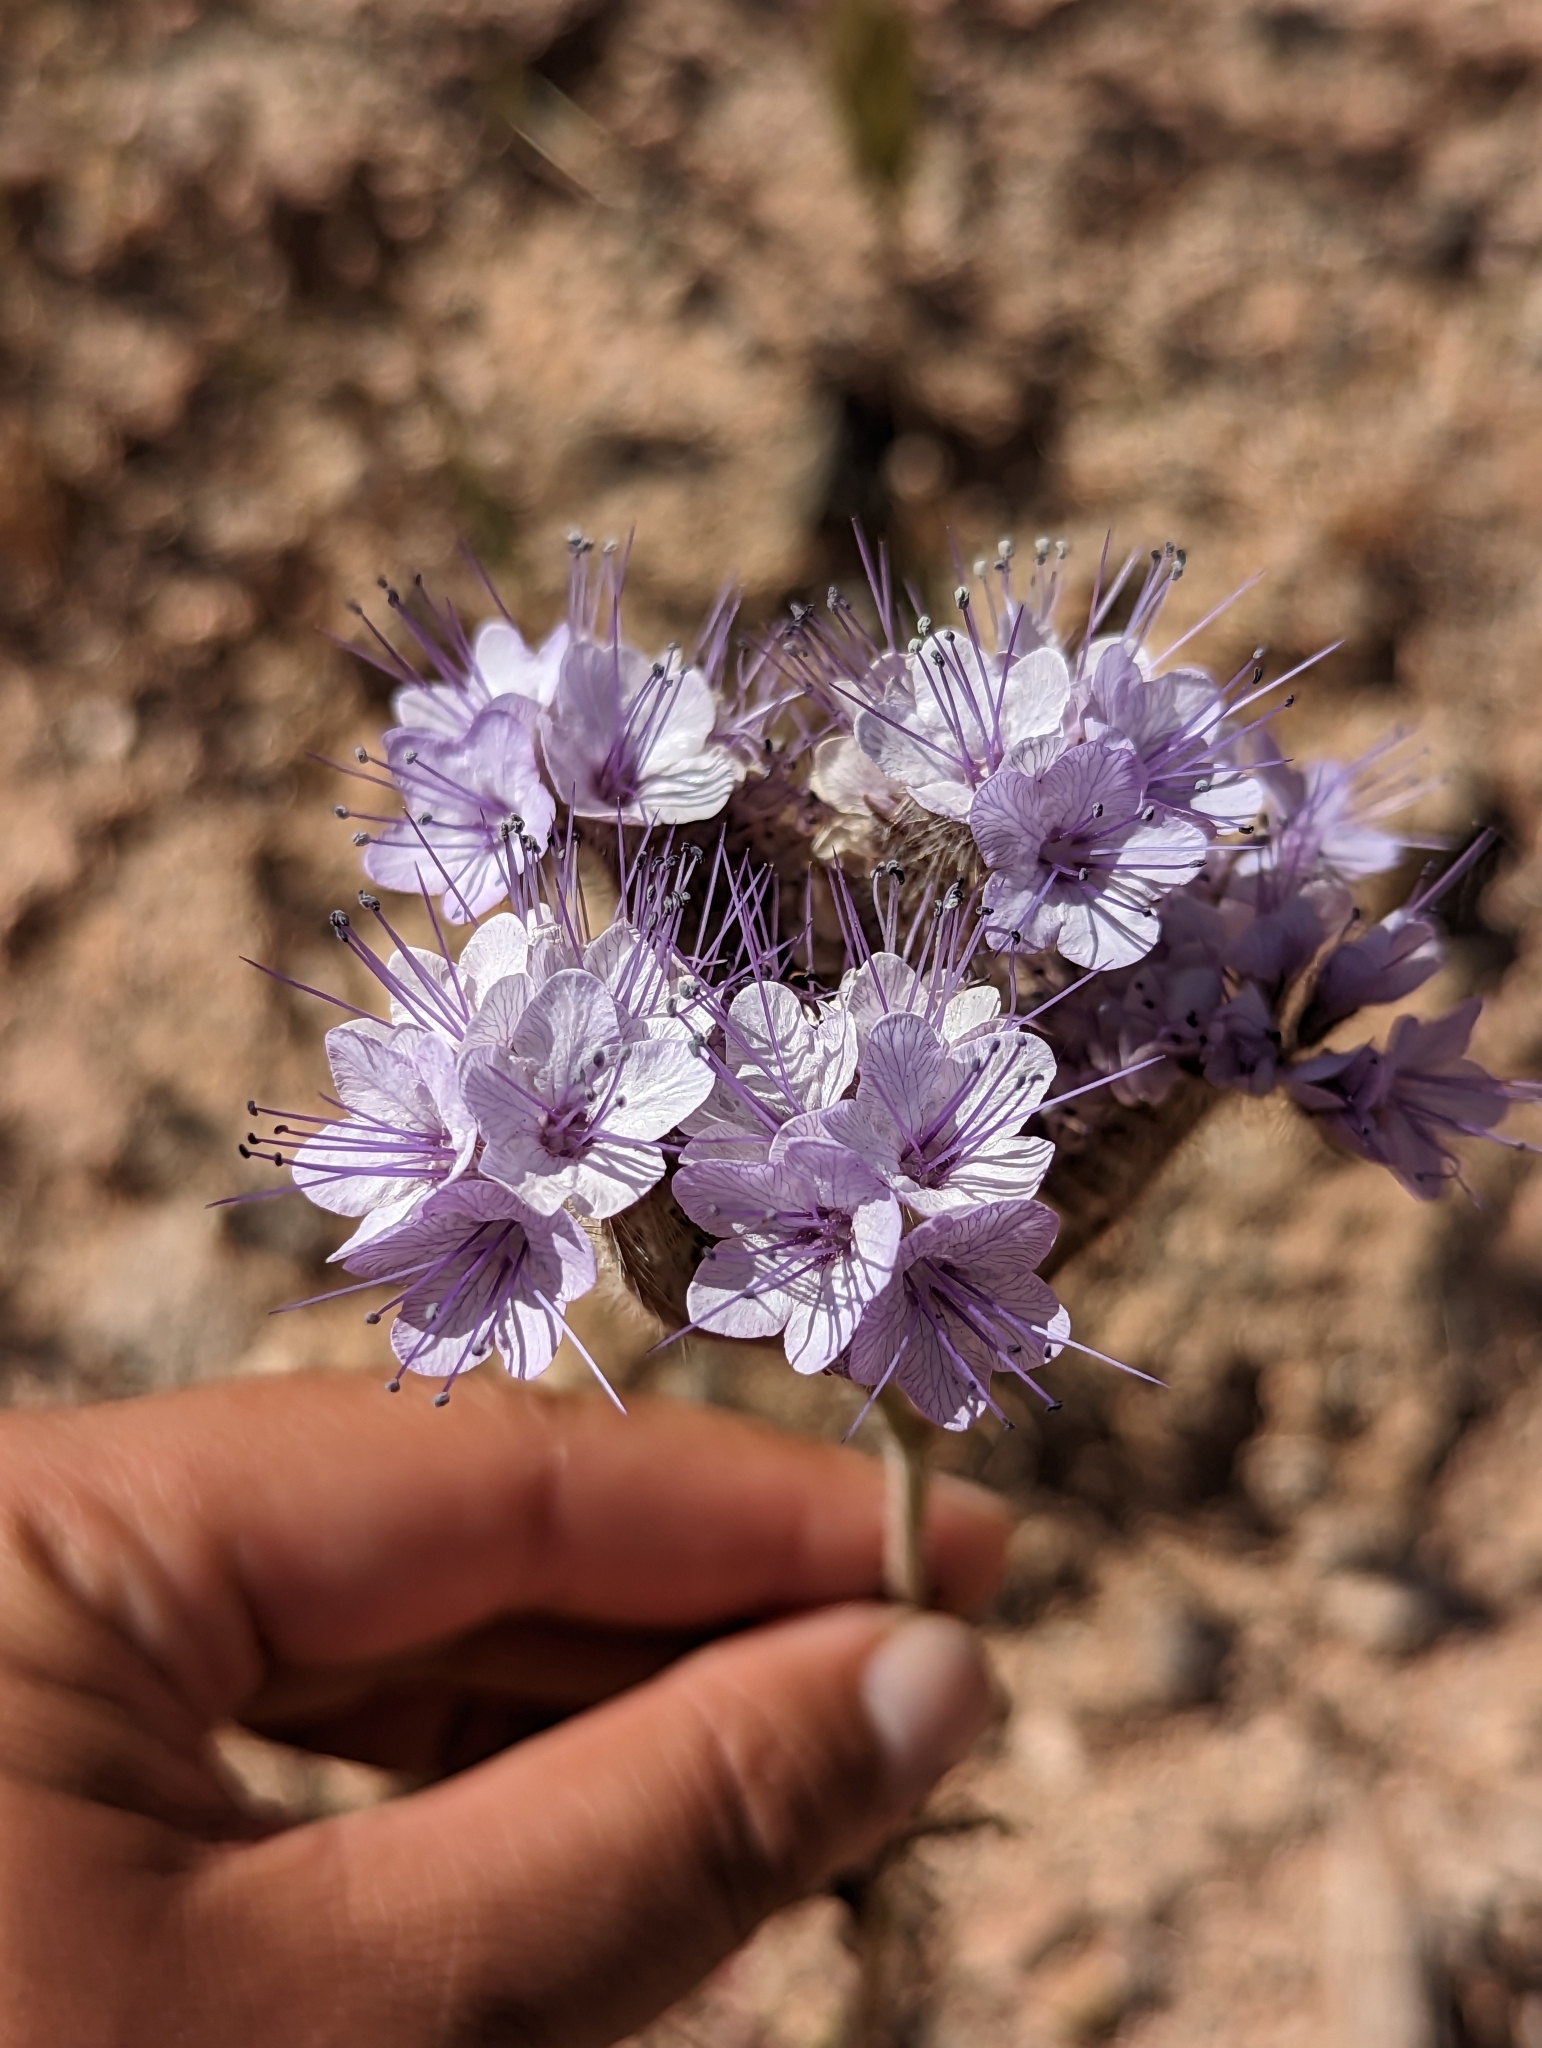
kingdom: Plantae
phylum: Tracheophyta
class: Magnoliopsida
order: Boraginales
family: Hydrophyllaceae
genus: Phacelia
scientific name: Phacelia tanacetifolia
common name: Phacelia
